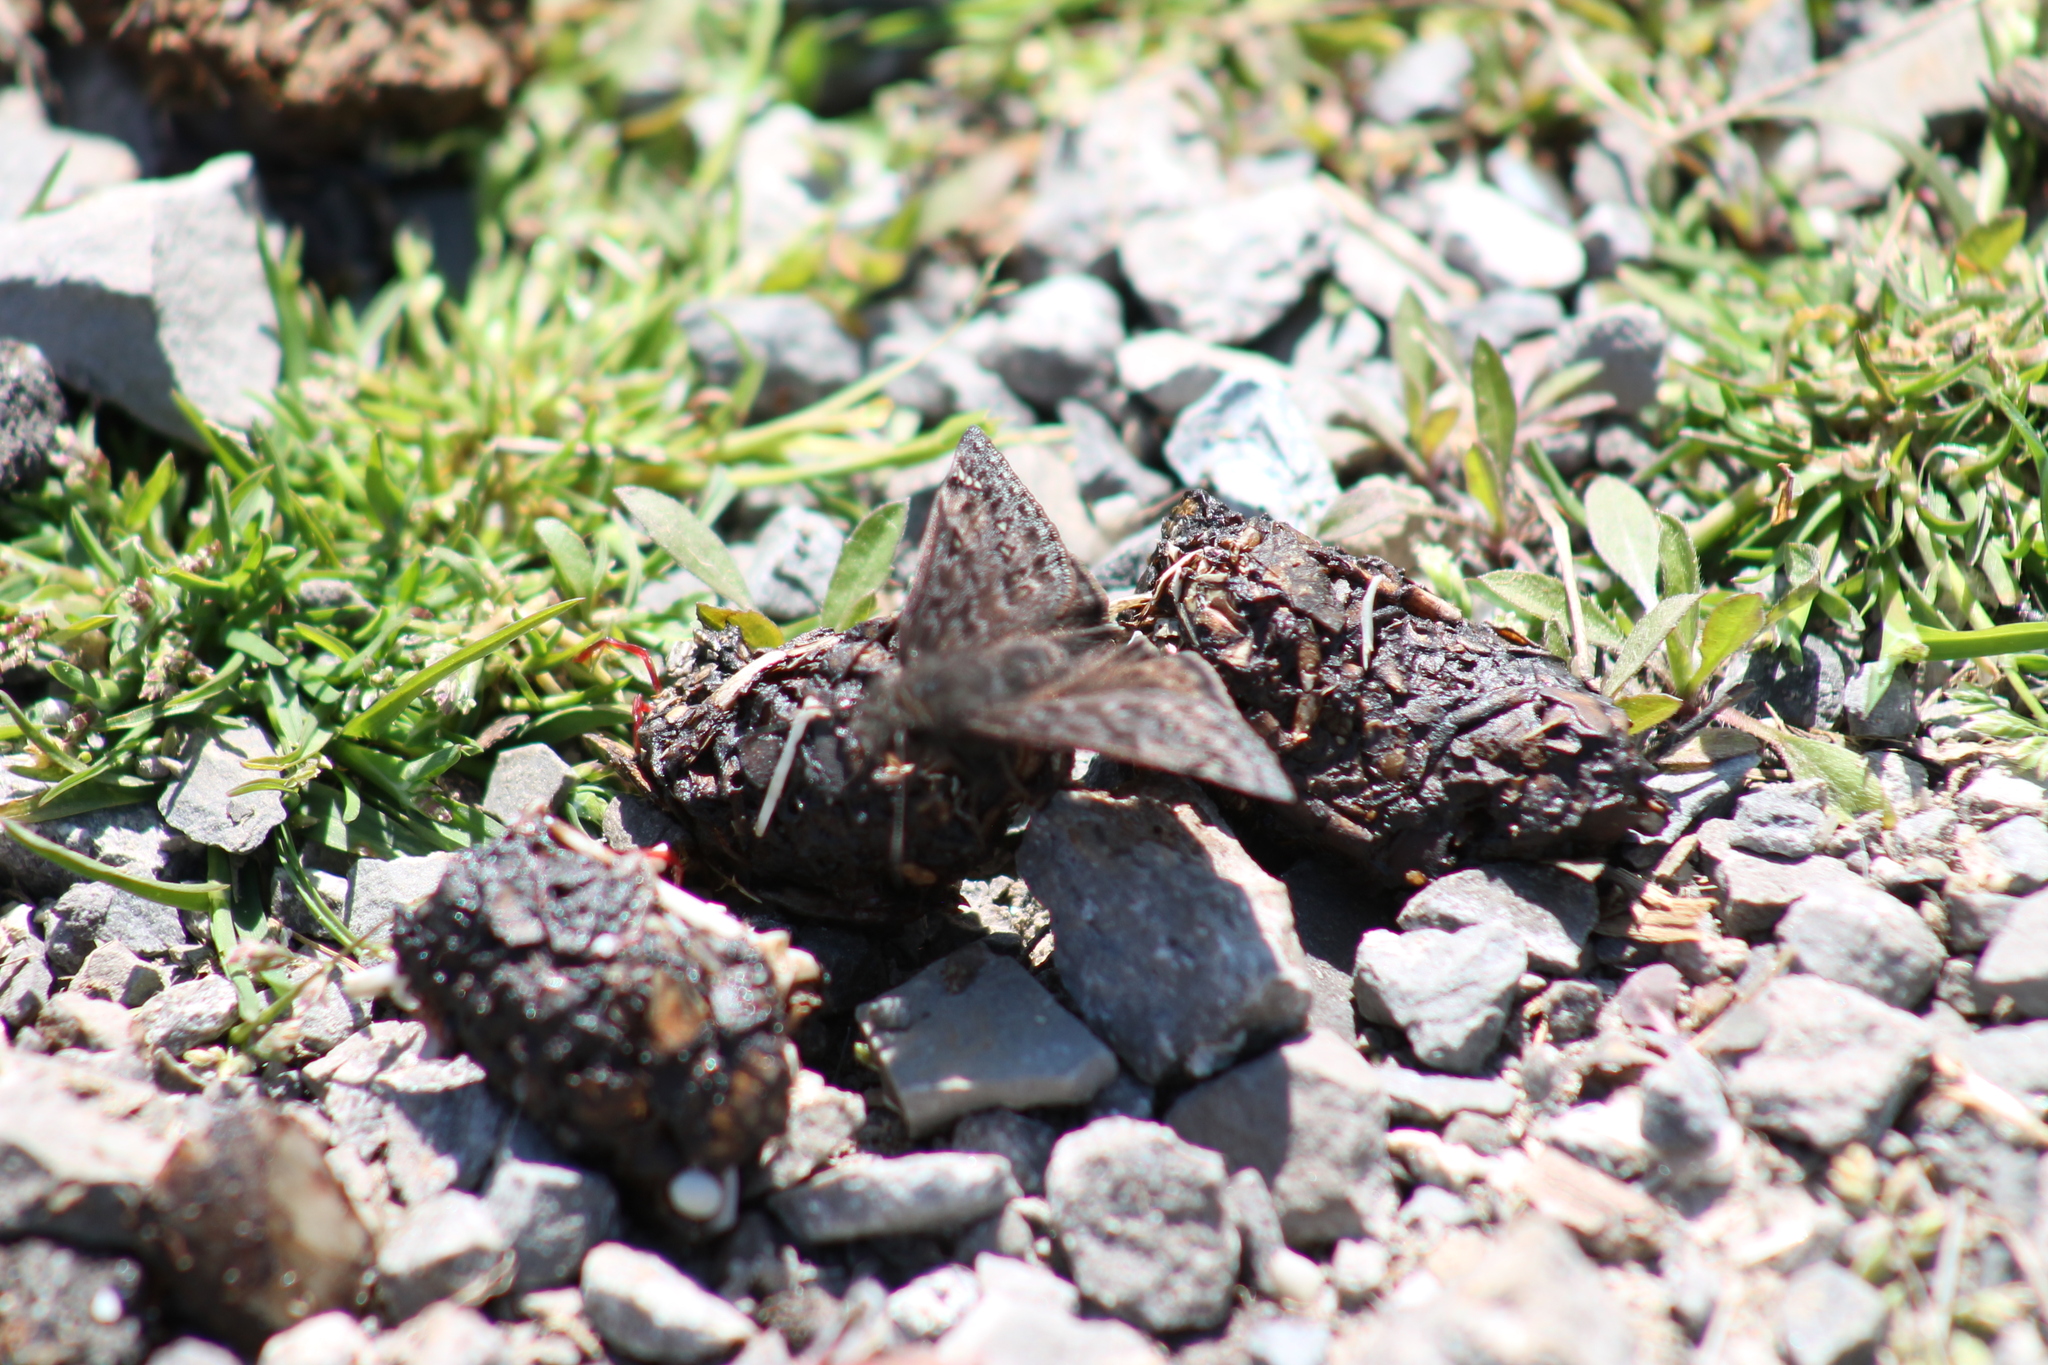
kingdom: Animalia
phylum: Arthropoda
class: Insecta
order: Lepidoptera
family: Hesperiidae
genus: Erynnis
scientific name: Erynnis juvenalis
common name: Juvenal's duskywing
